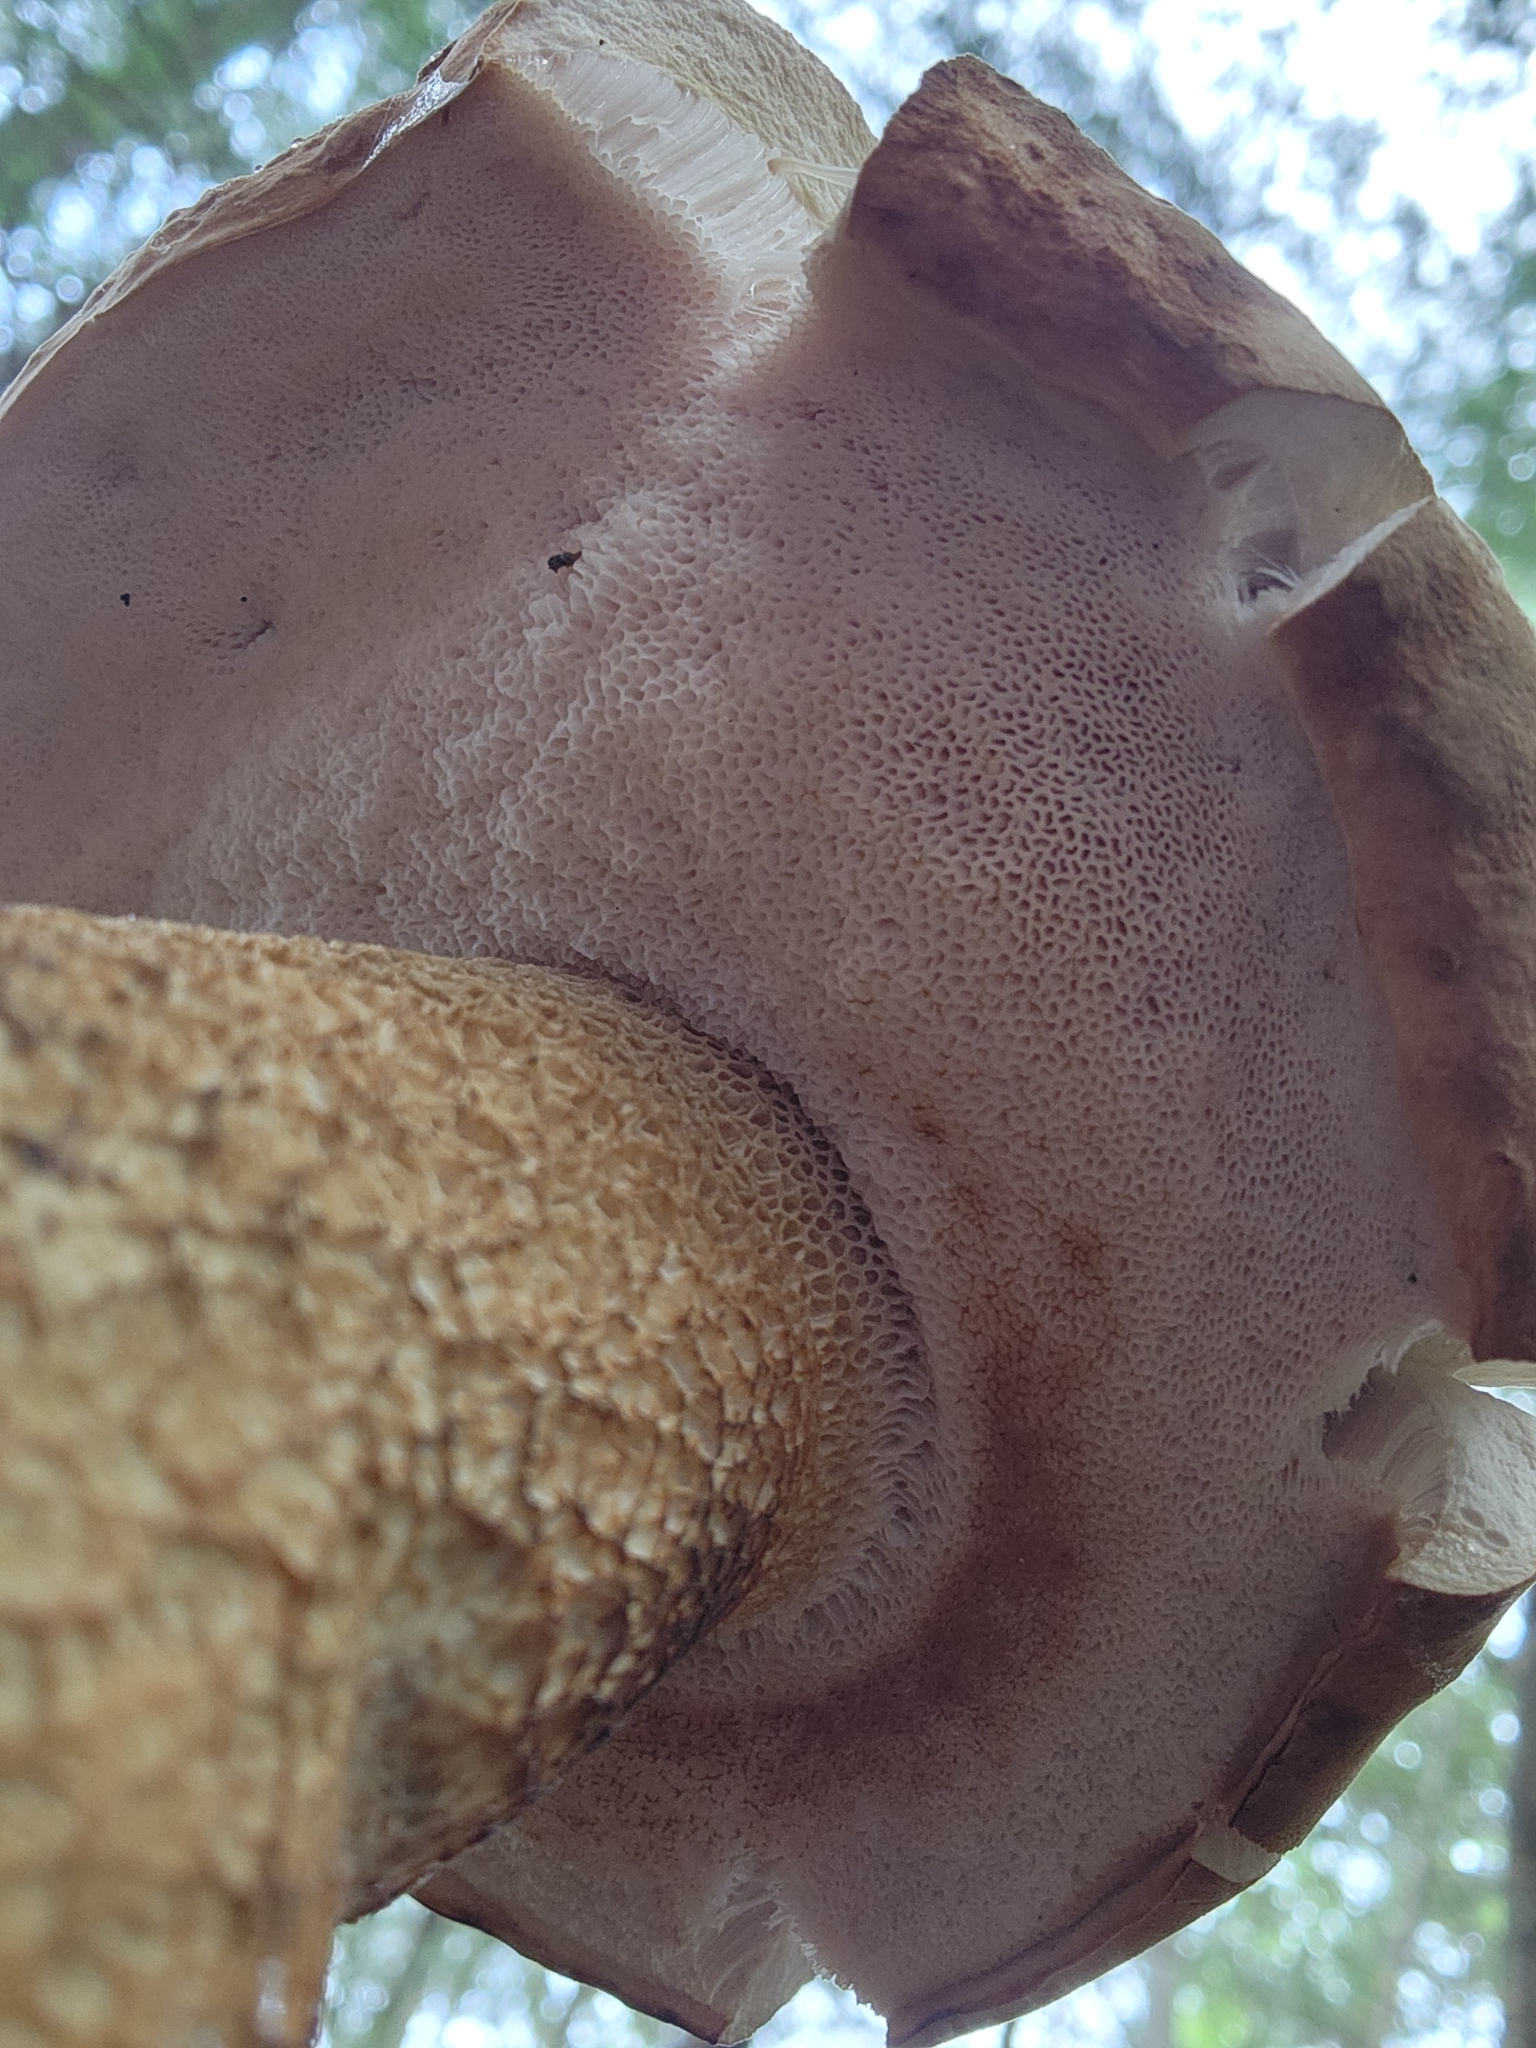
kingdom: Fungi
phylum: Basidiomycota
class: Agaricomycetes
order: Boletales
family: Boletaceae
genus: Tylopilus
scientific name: Tylopilus felleus
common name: Bitter bolete
